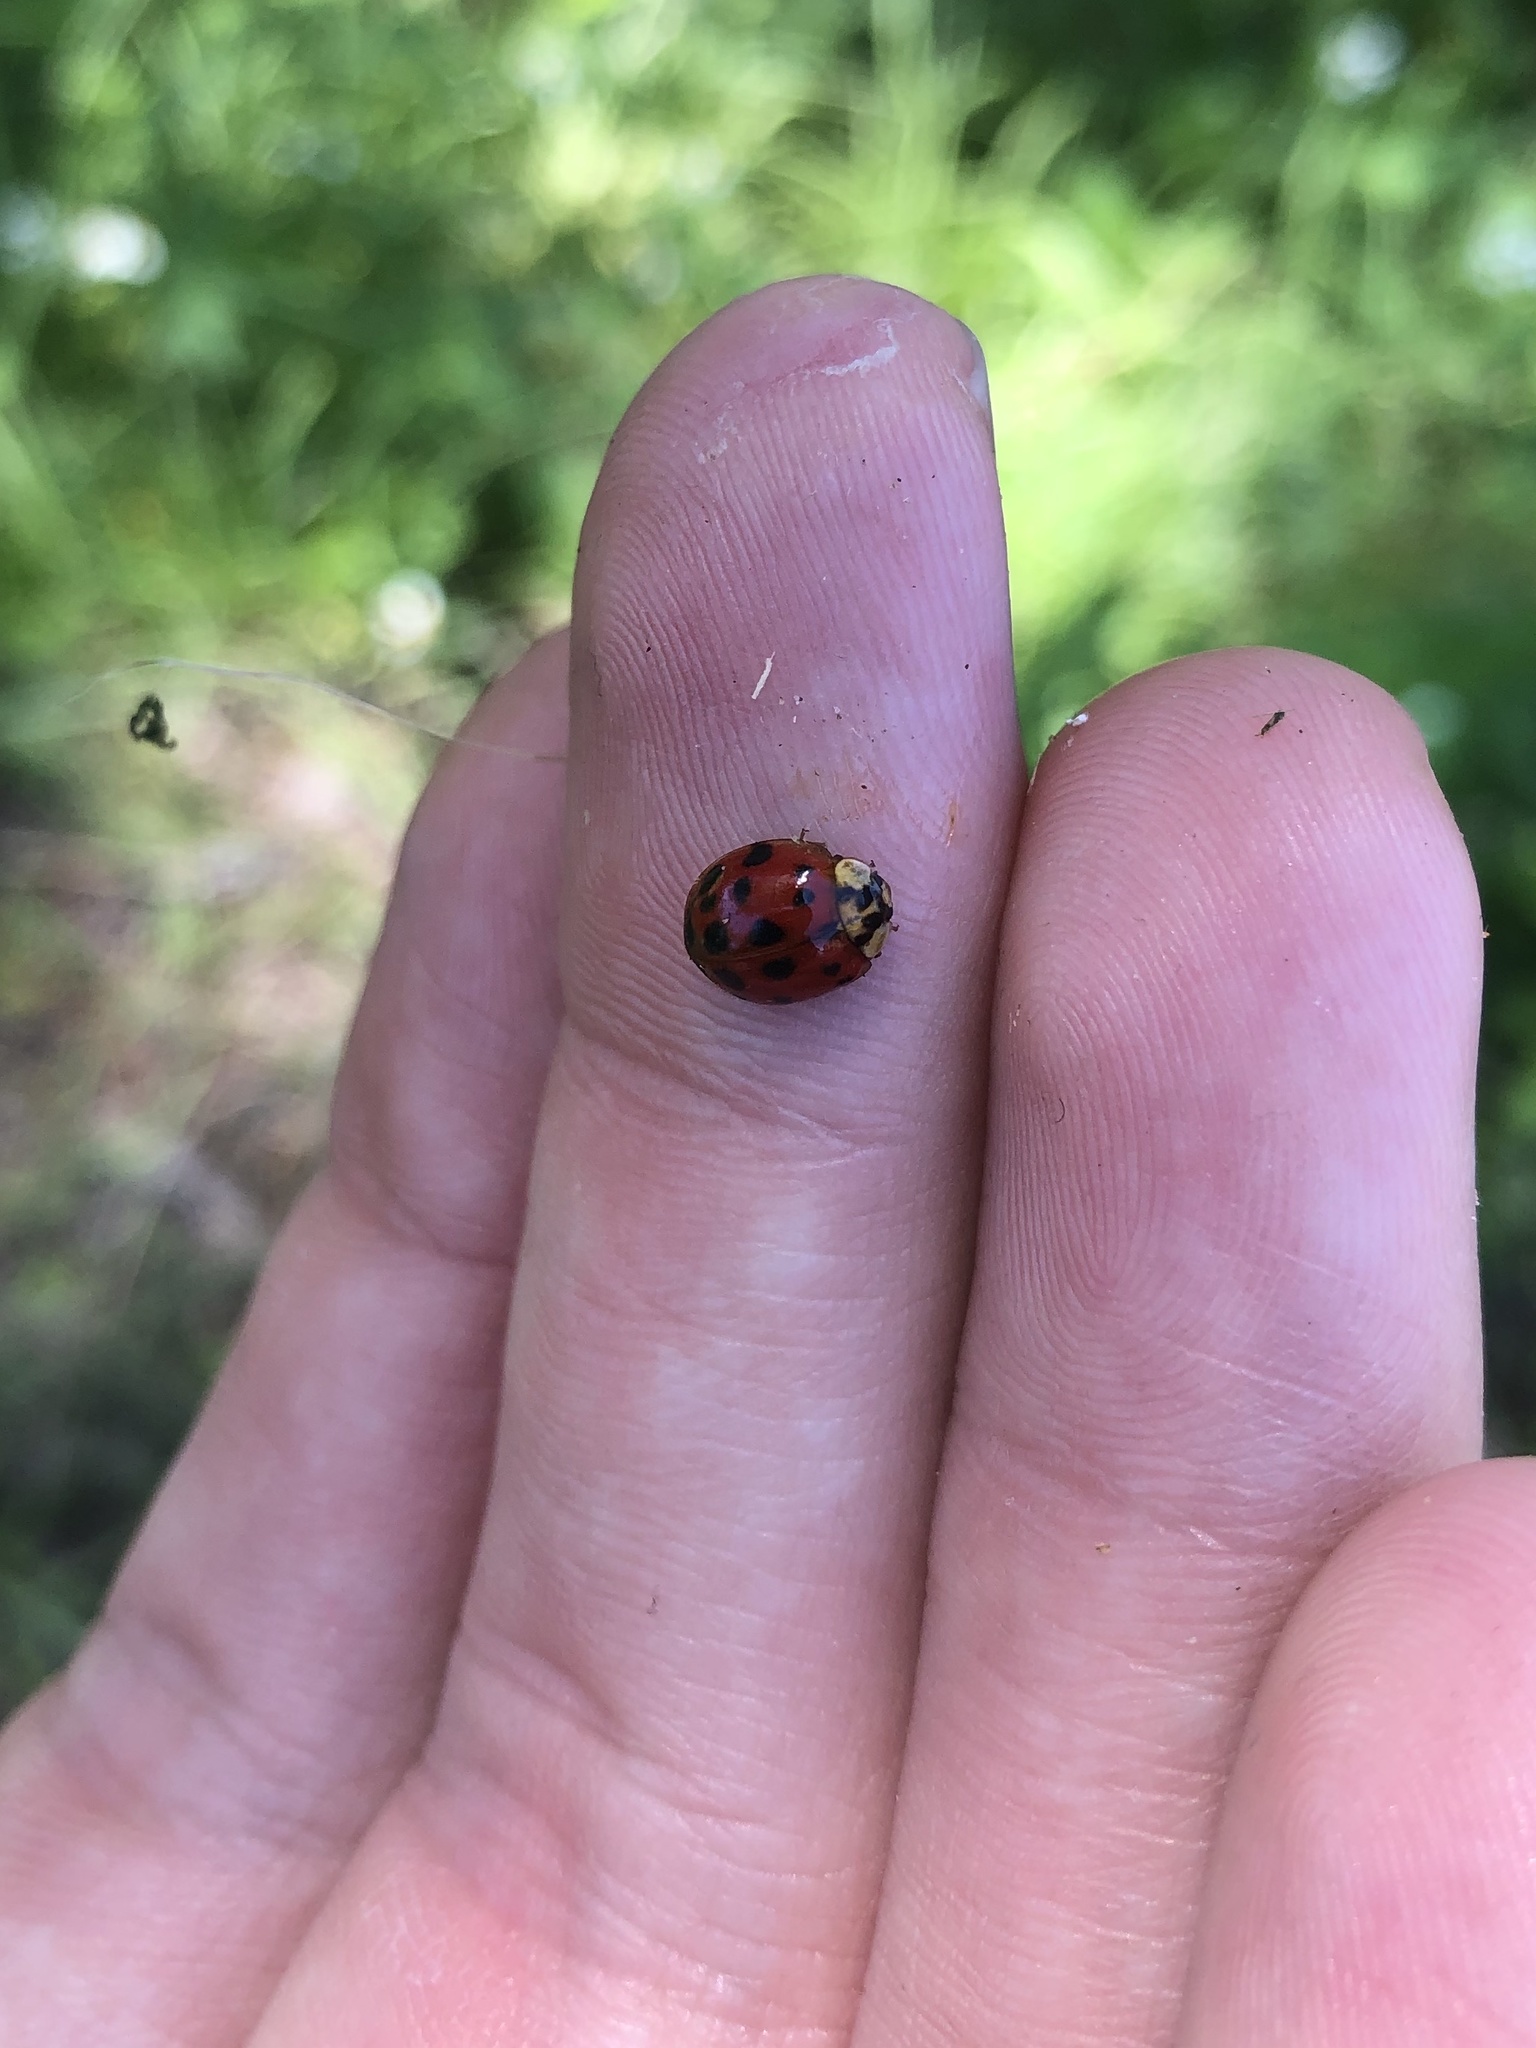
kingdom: Animalia
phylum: Arthropoda
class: Insecta
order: Coleoptera
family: Coccinellidae
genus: Harmonia
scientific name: Harmonia axyridis
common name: Harlequin ladybird
